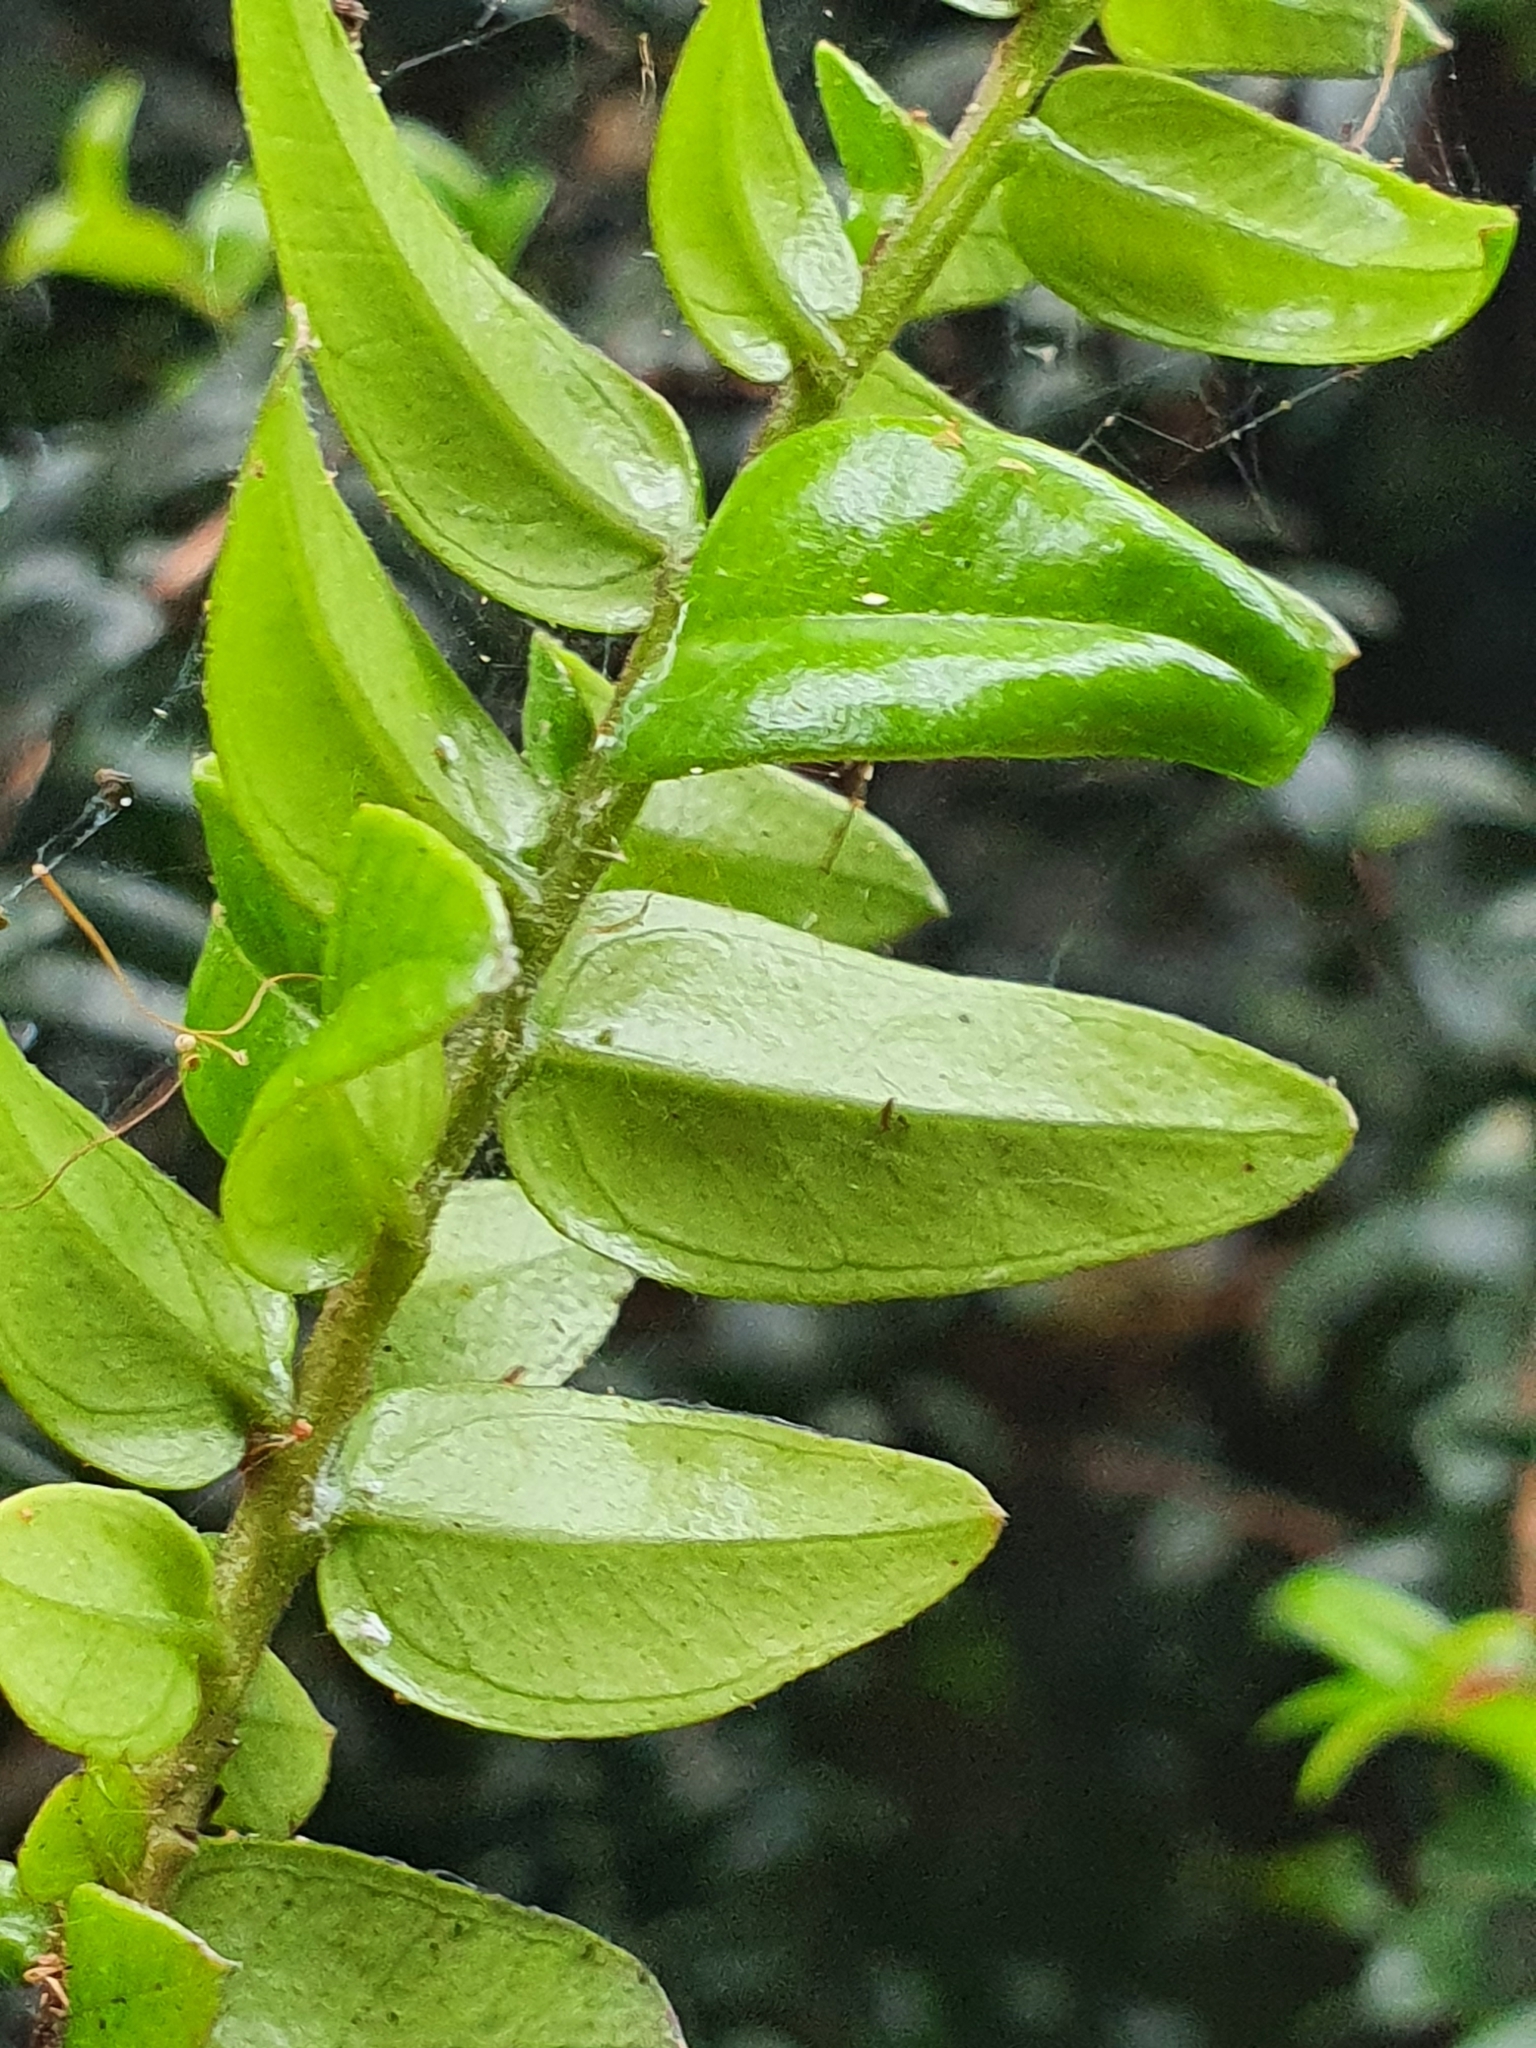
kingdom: Plantae
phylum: Tracheophyta
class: Magnoliopsida
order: Myrtales
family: Myrtaceae
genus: Metrosideros
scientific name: Metrosideros diffusa
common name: Small ratavine
